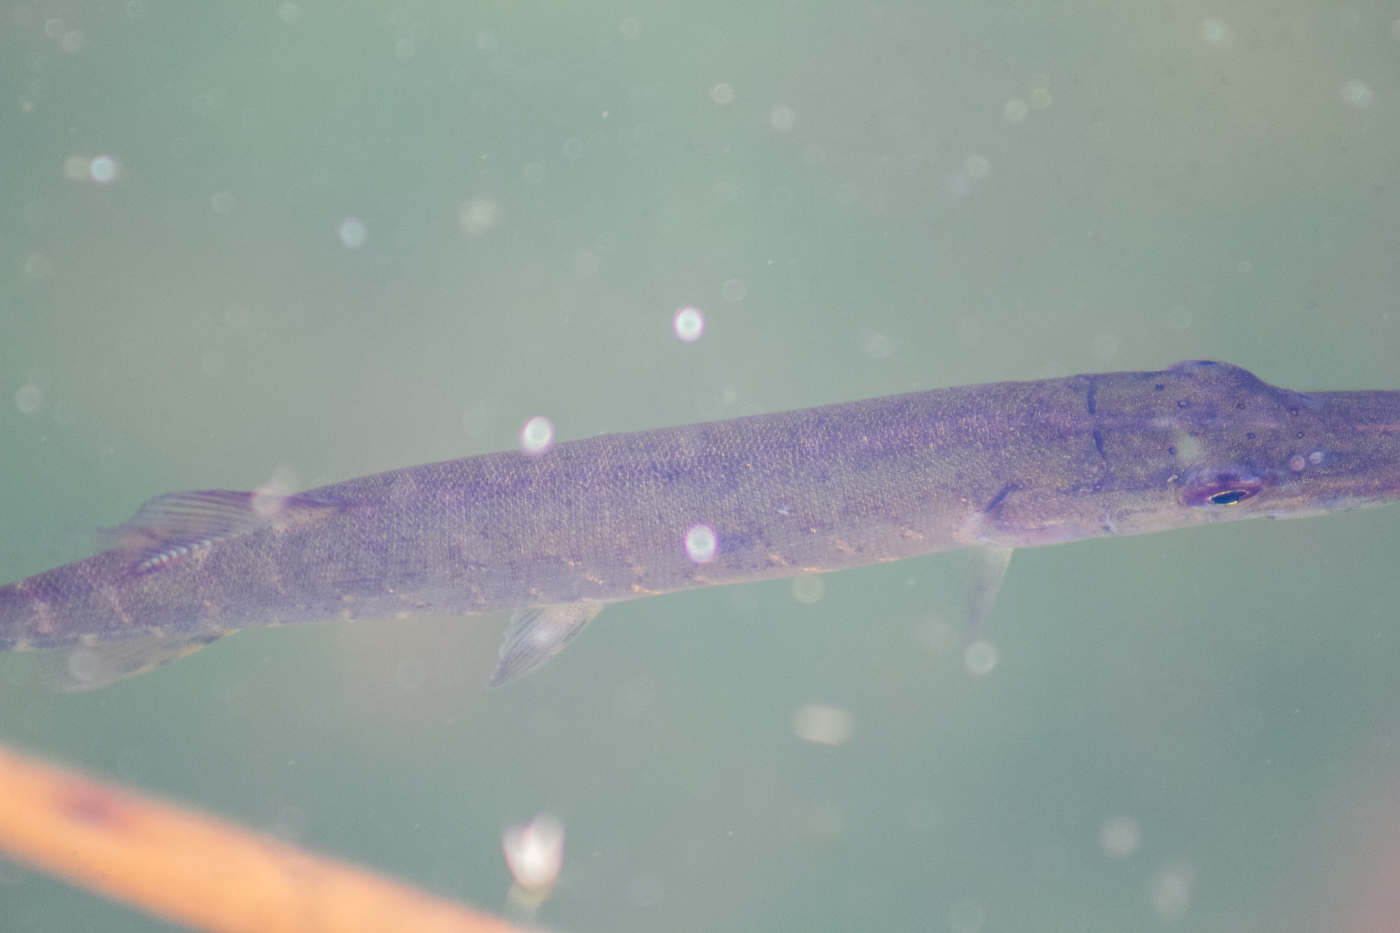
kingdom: Animalia
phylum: Chordata
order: Esociformes
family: Esocidae
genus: Esox
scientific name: Esox lucius
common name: Northern pike
